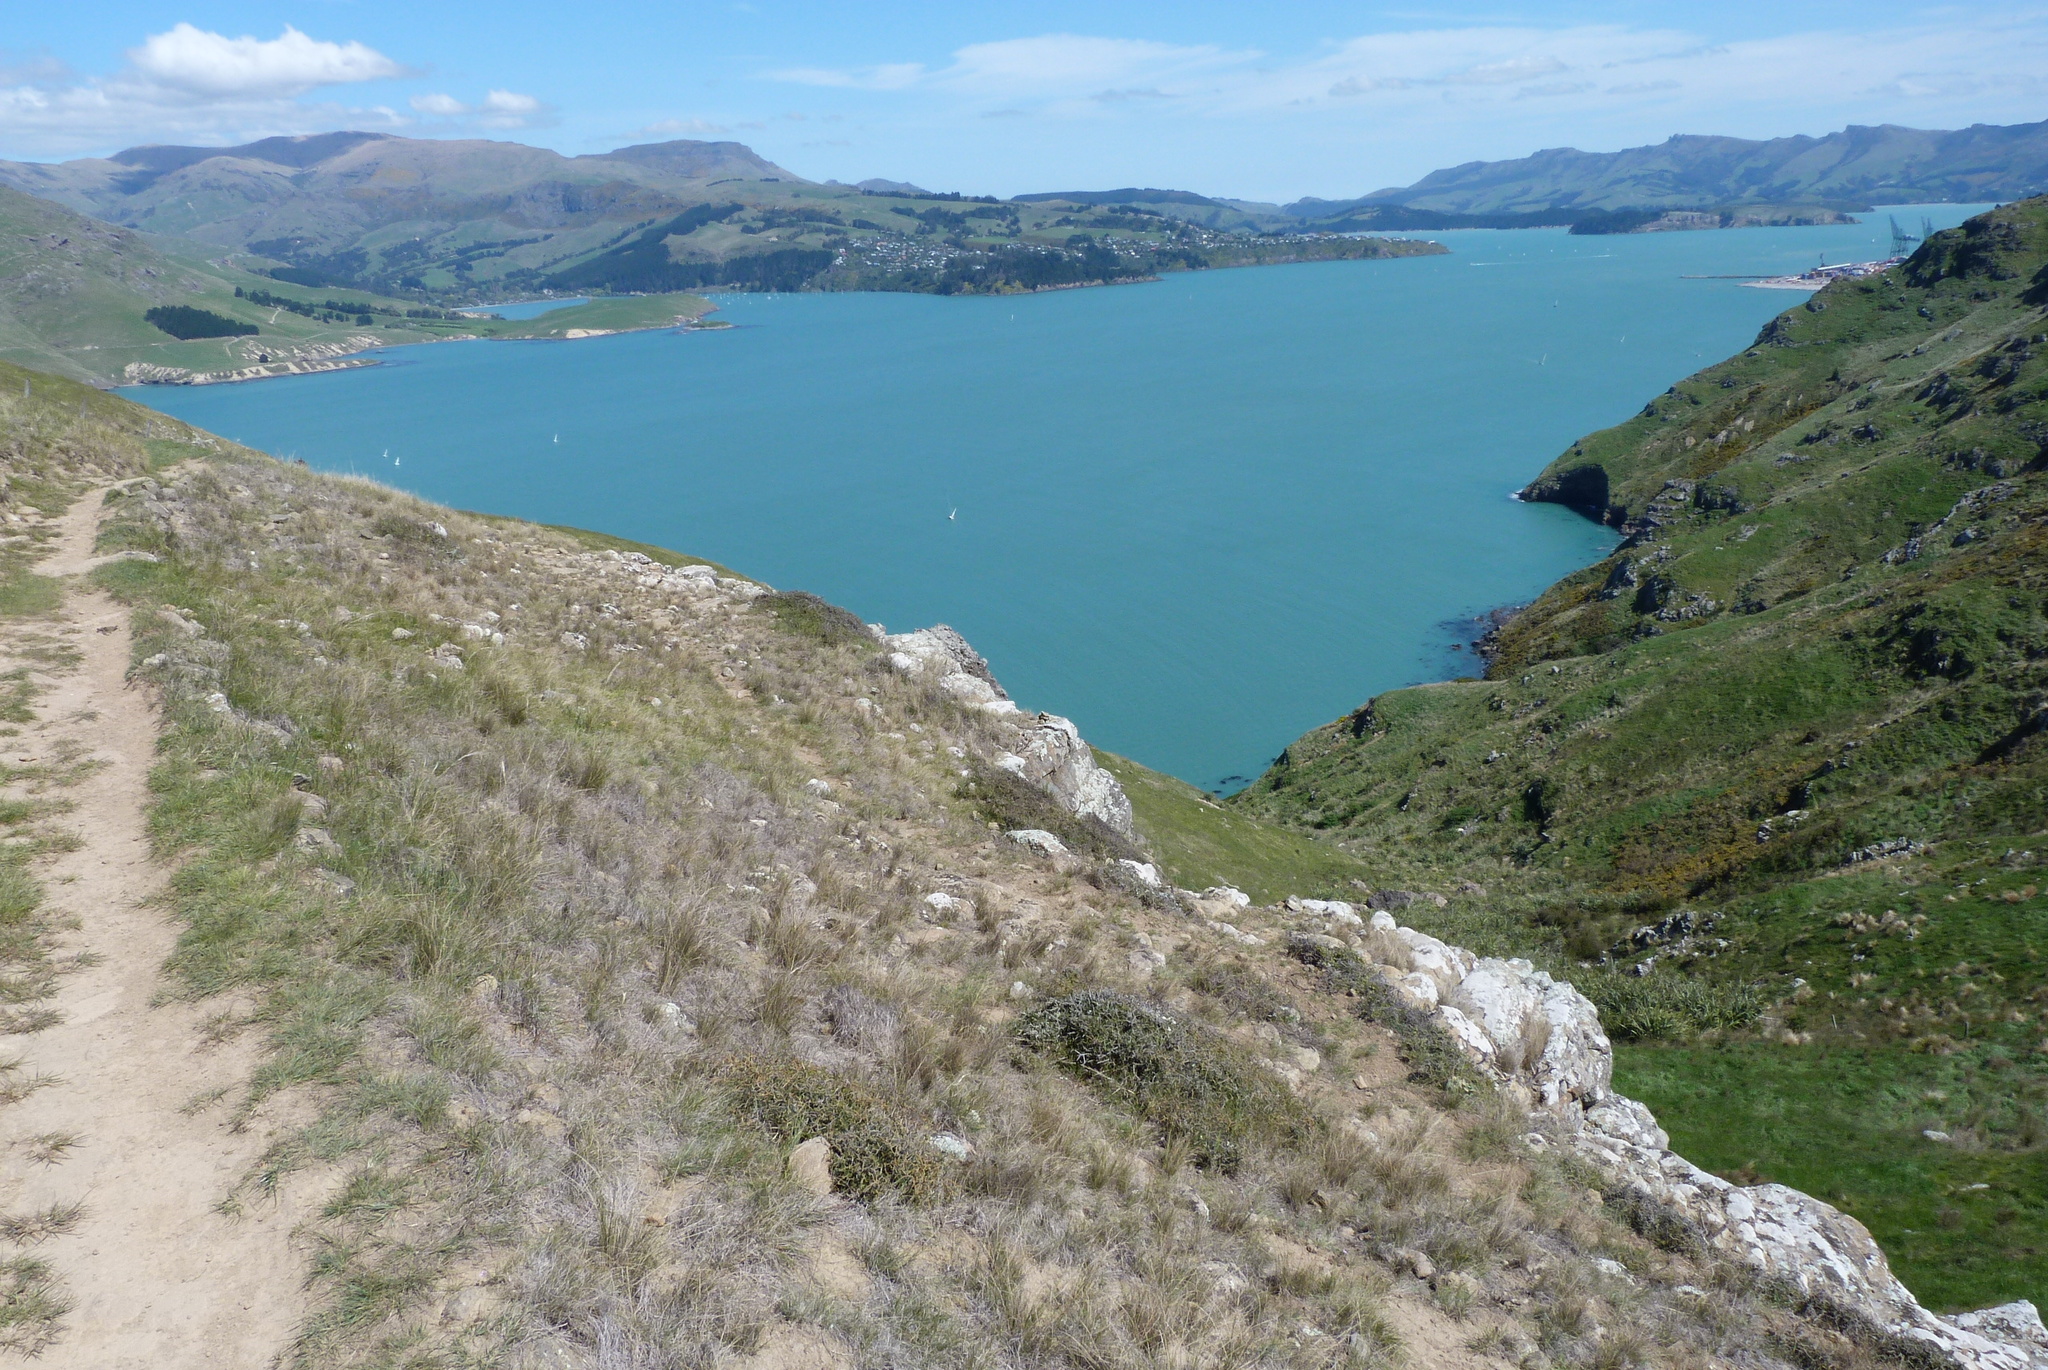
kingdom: Plantae
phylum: Tracheophyta
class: Magnoliopsida
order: Fabales
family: Fabaceae
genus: Sophora
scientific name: Sophora prostrata
